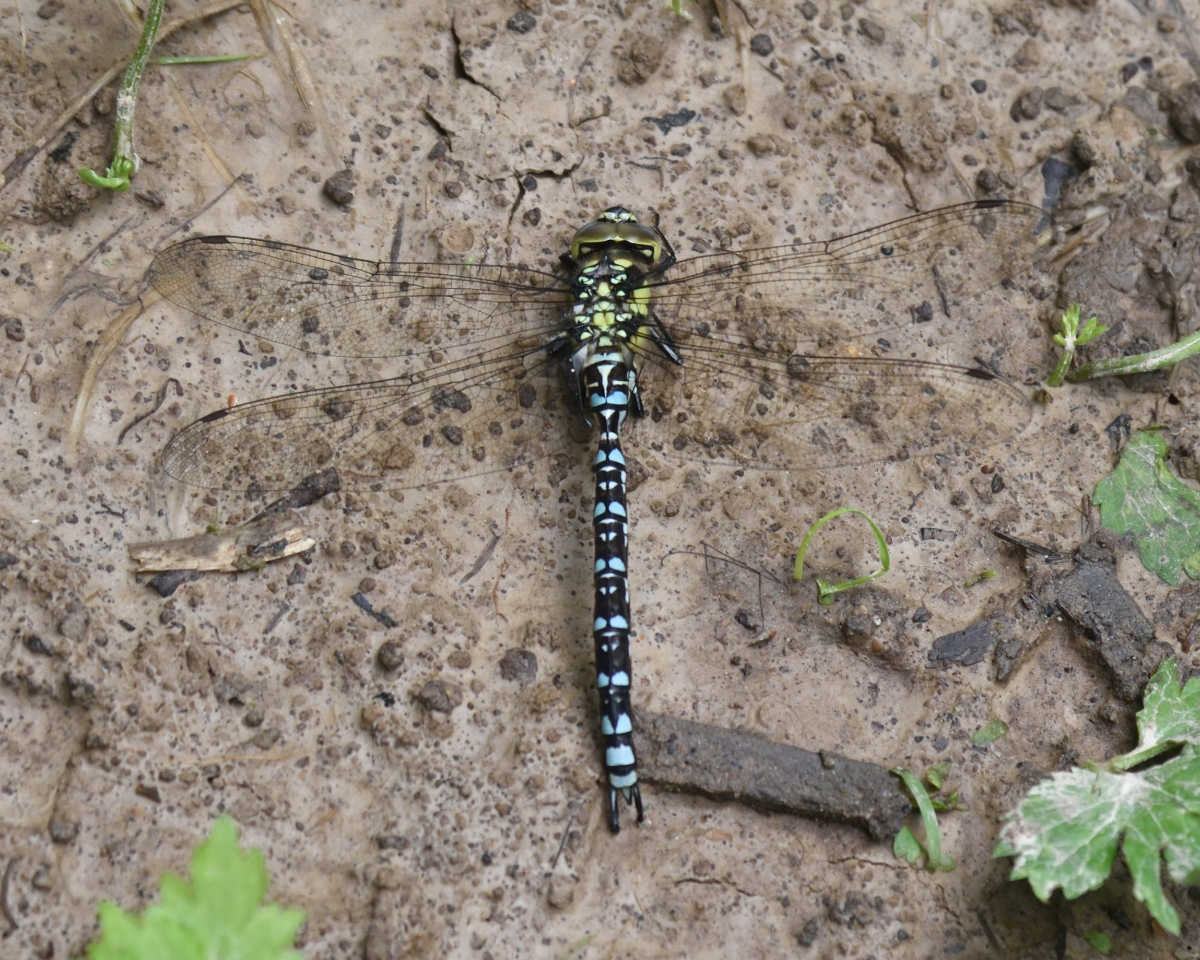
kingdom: Animalia
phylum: Arthropoda
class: Insecta
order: Odonata
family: Aeshnidae
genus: Aeshna
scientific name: Aeshna cyanea
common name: Southern hawker
